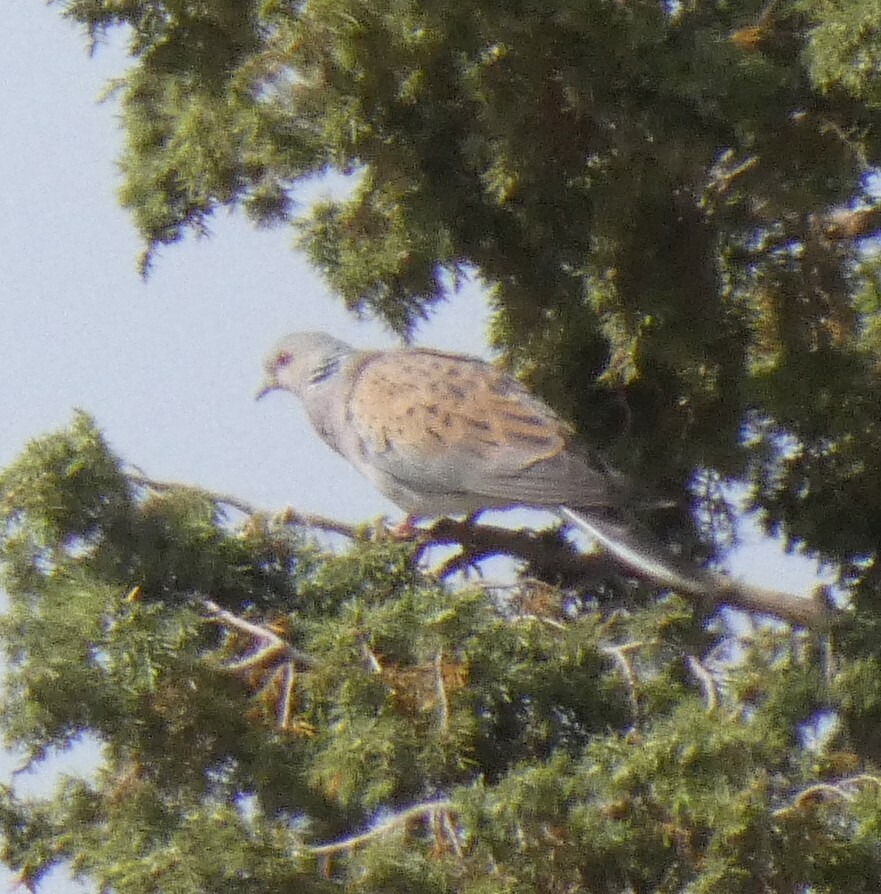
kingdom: Animalia
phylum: Chordata
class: Aves
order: Columbiformes
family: Columbidae
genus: Streptopelia
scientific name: Streptopelia turtur
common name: European turtle dove
